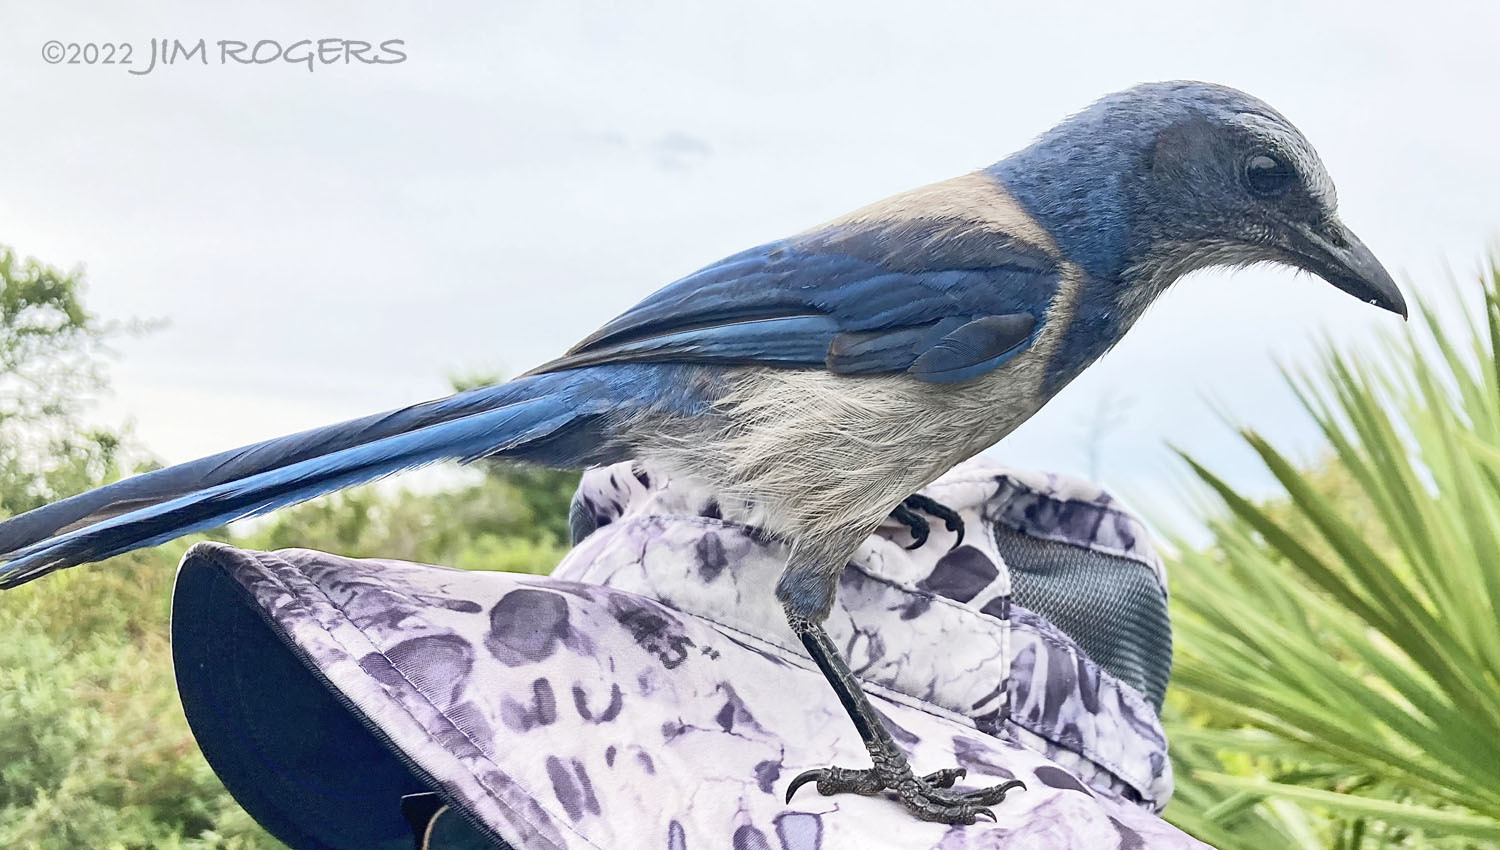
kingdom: Animalia
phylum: Chordata
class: Aves
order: Passeriformes
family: Corvidae
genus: Aphelocoma
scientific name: Aphelocoma coerulescens
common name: Florida scrub jay
